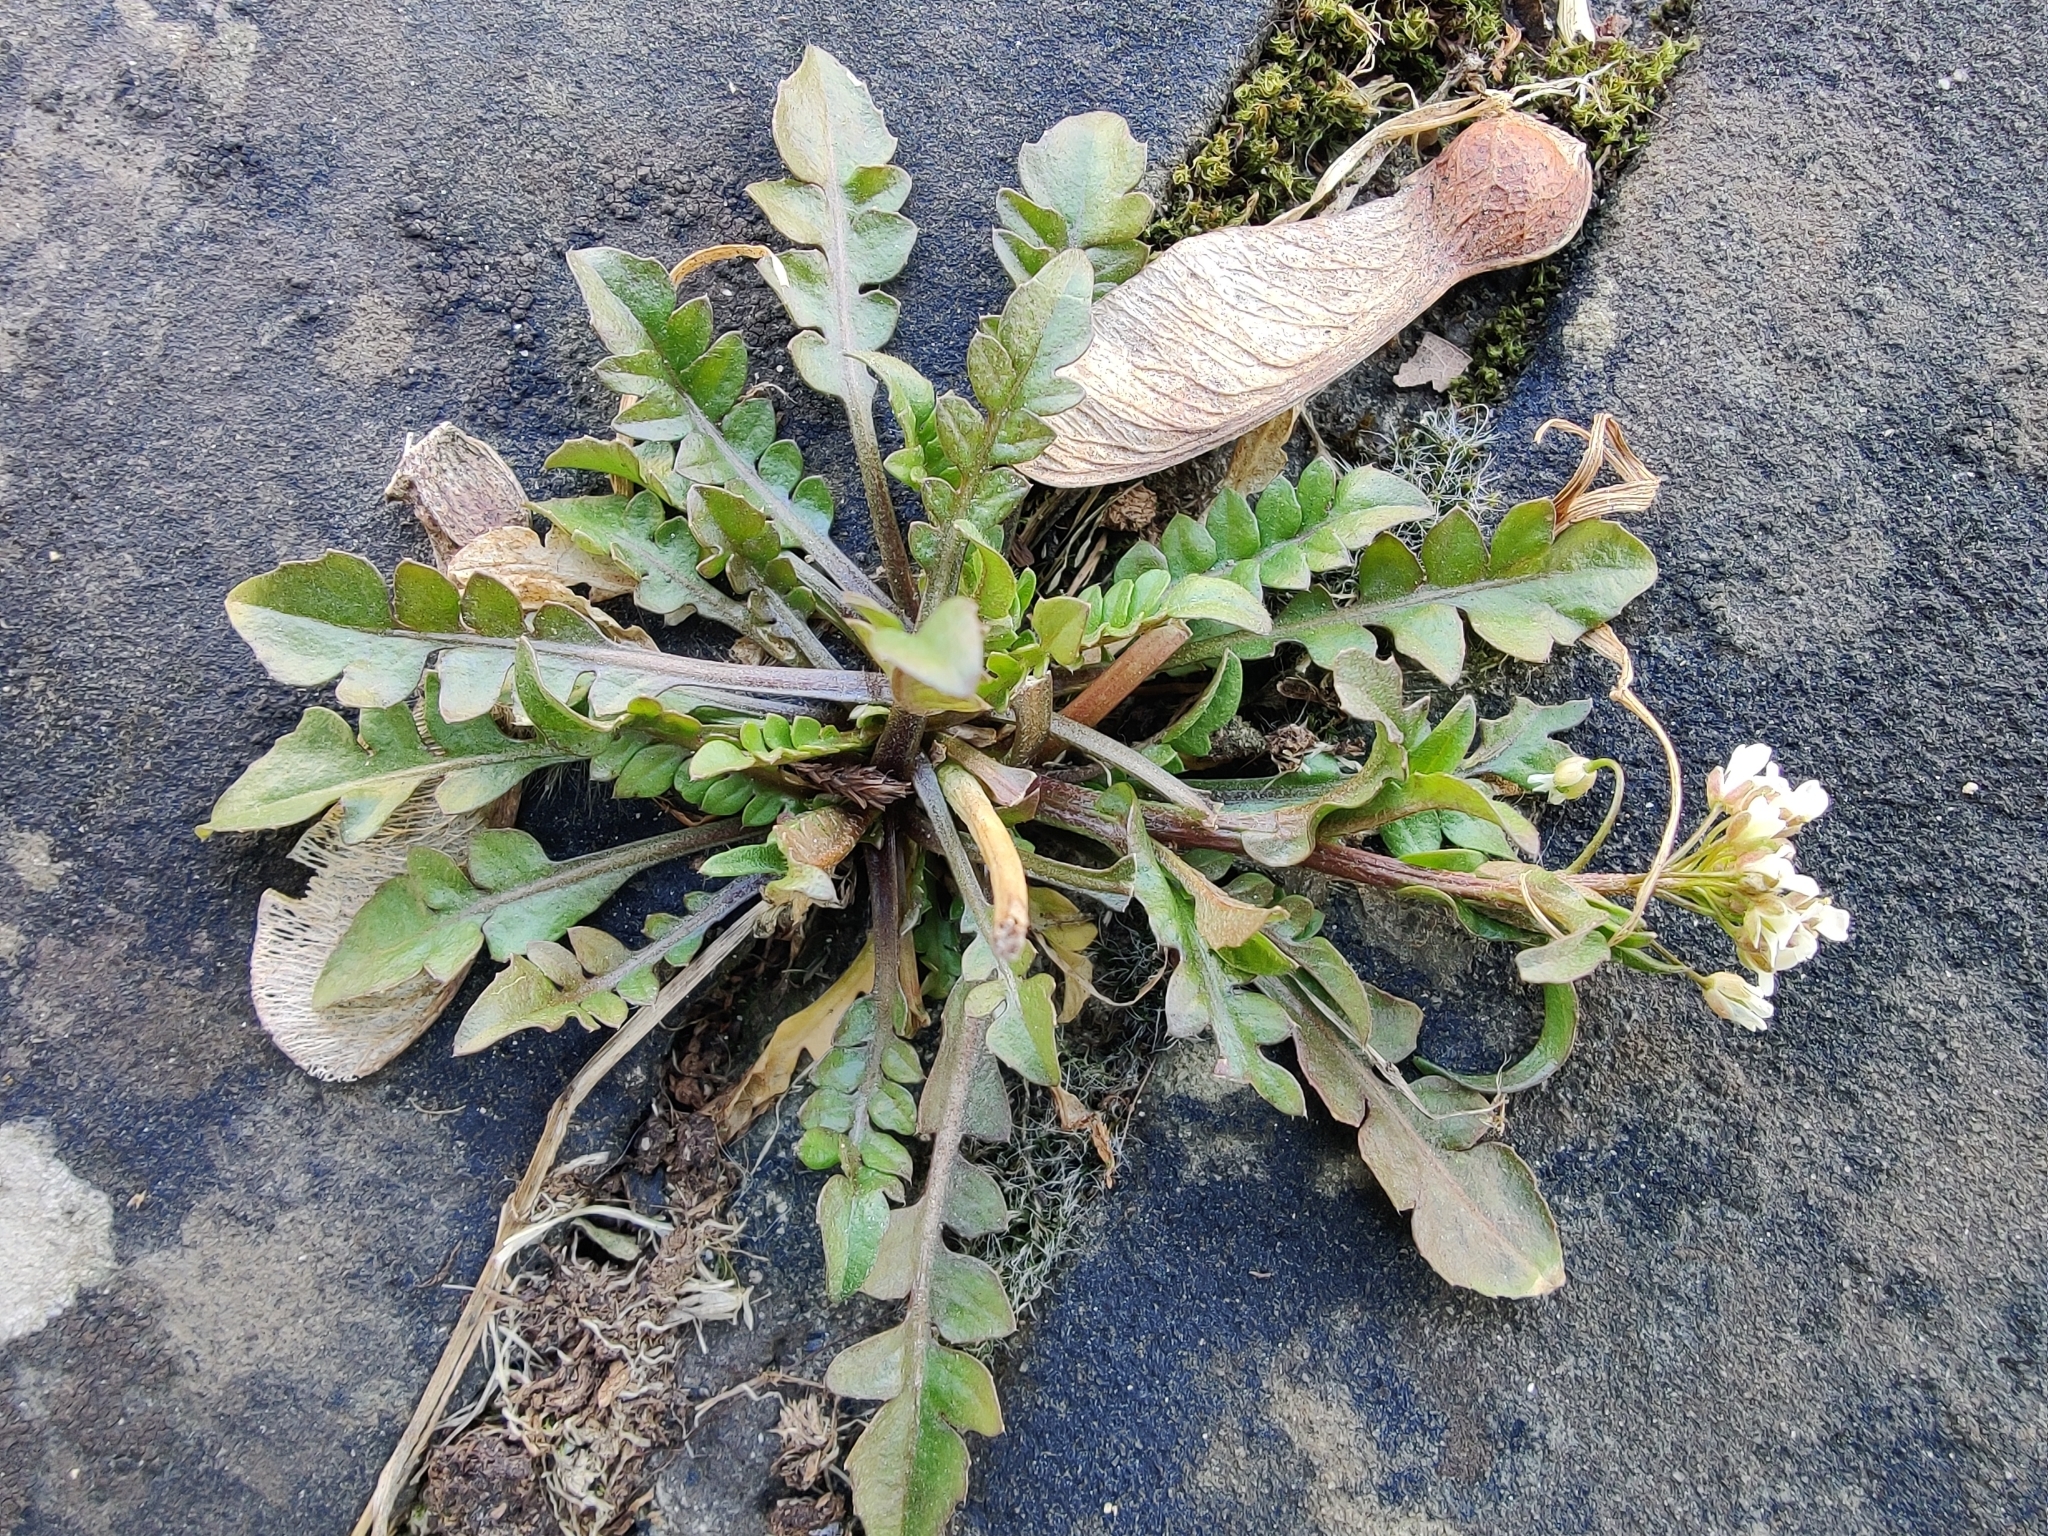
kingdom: Plantae
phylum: Tracheophyta
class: Magnoliopsida
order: Brassicales
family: Brassicaceae
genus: Capsella
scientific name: Capsella bursa-pastoris
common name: Shepherd's purse
